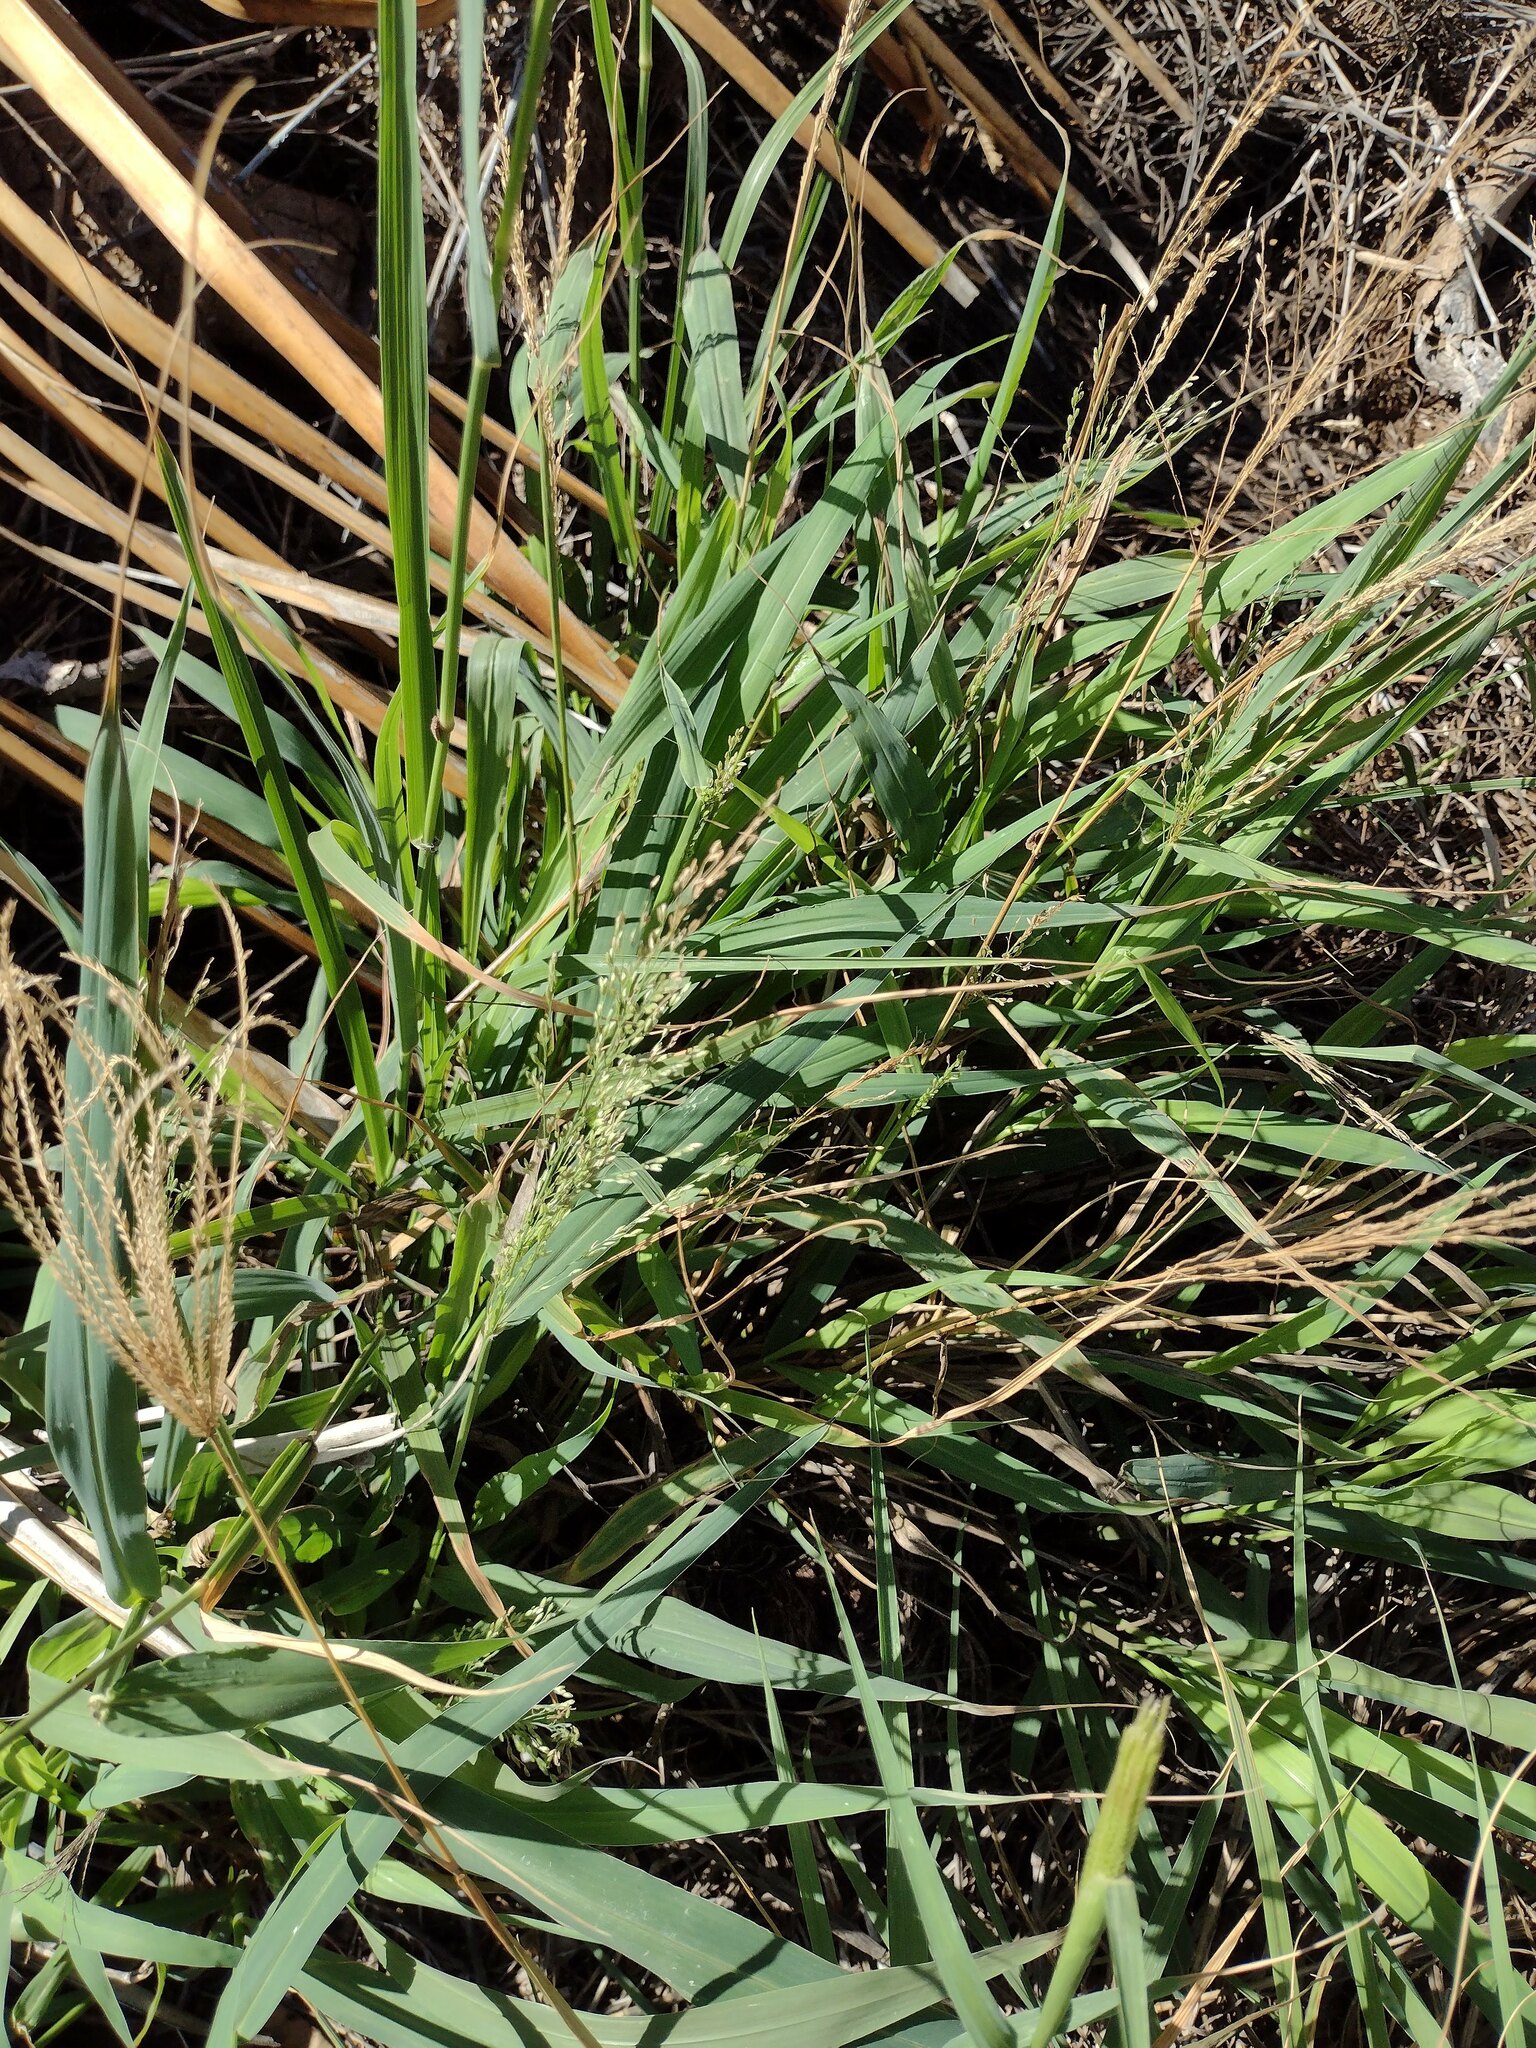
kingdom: Plantae
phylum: Tracheophyta
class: Liliopsida
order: Poales
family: Poaceae
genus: Megathyrsus
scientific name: Megathyrsus maximus
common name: Guineagrass
